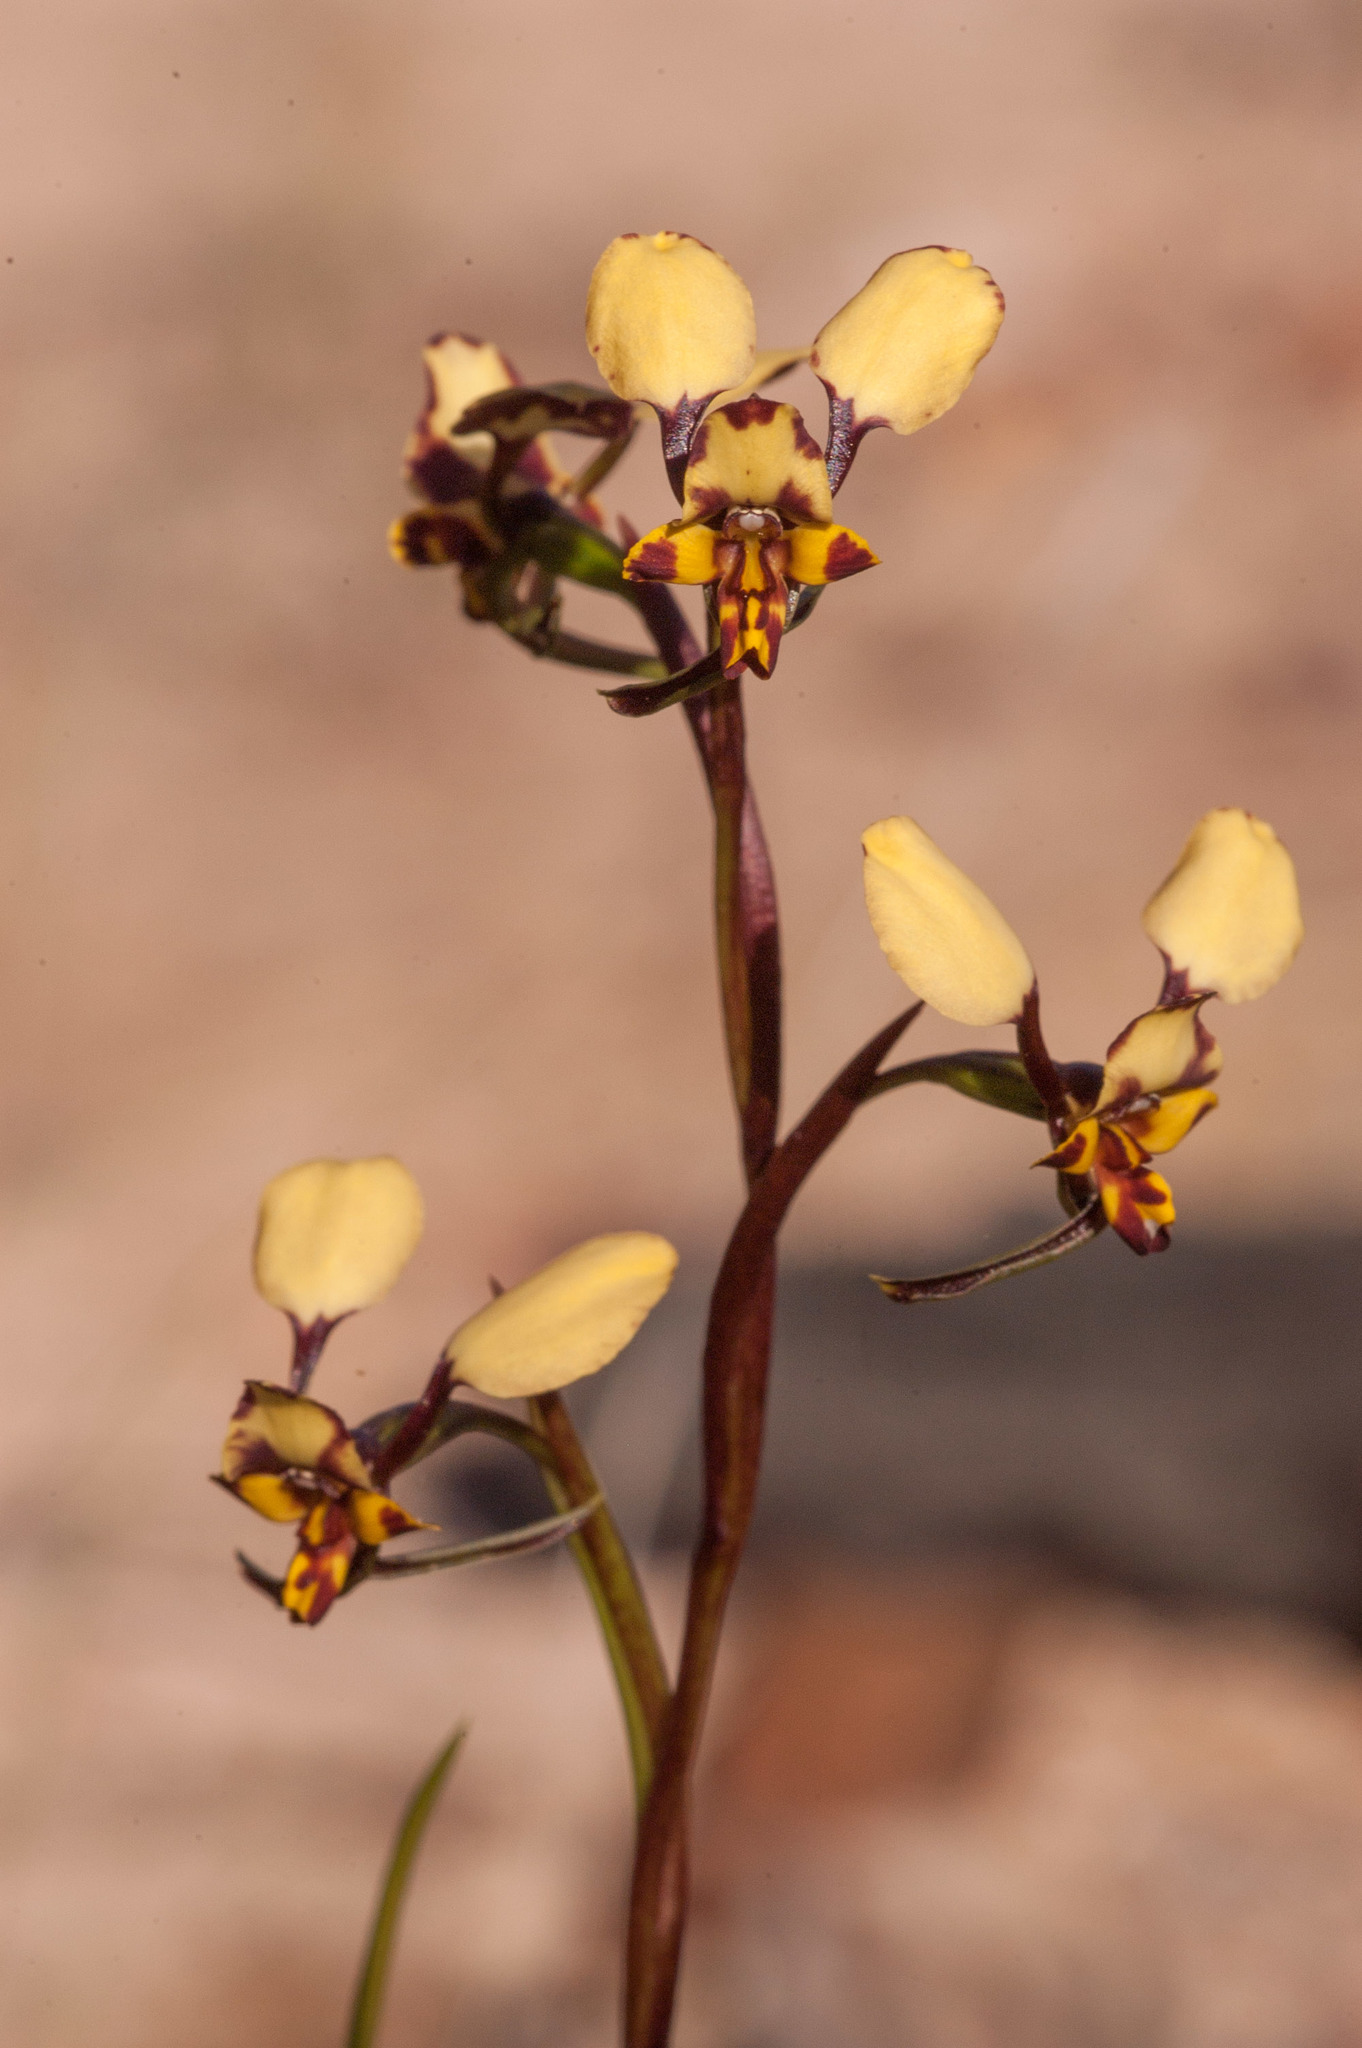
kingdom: Plantae
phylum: Tracheophyta
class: Liliopsida
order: Asparagales
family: Orchidaceae
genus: Diuris
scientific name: Diuris pardina
